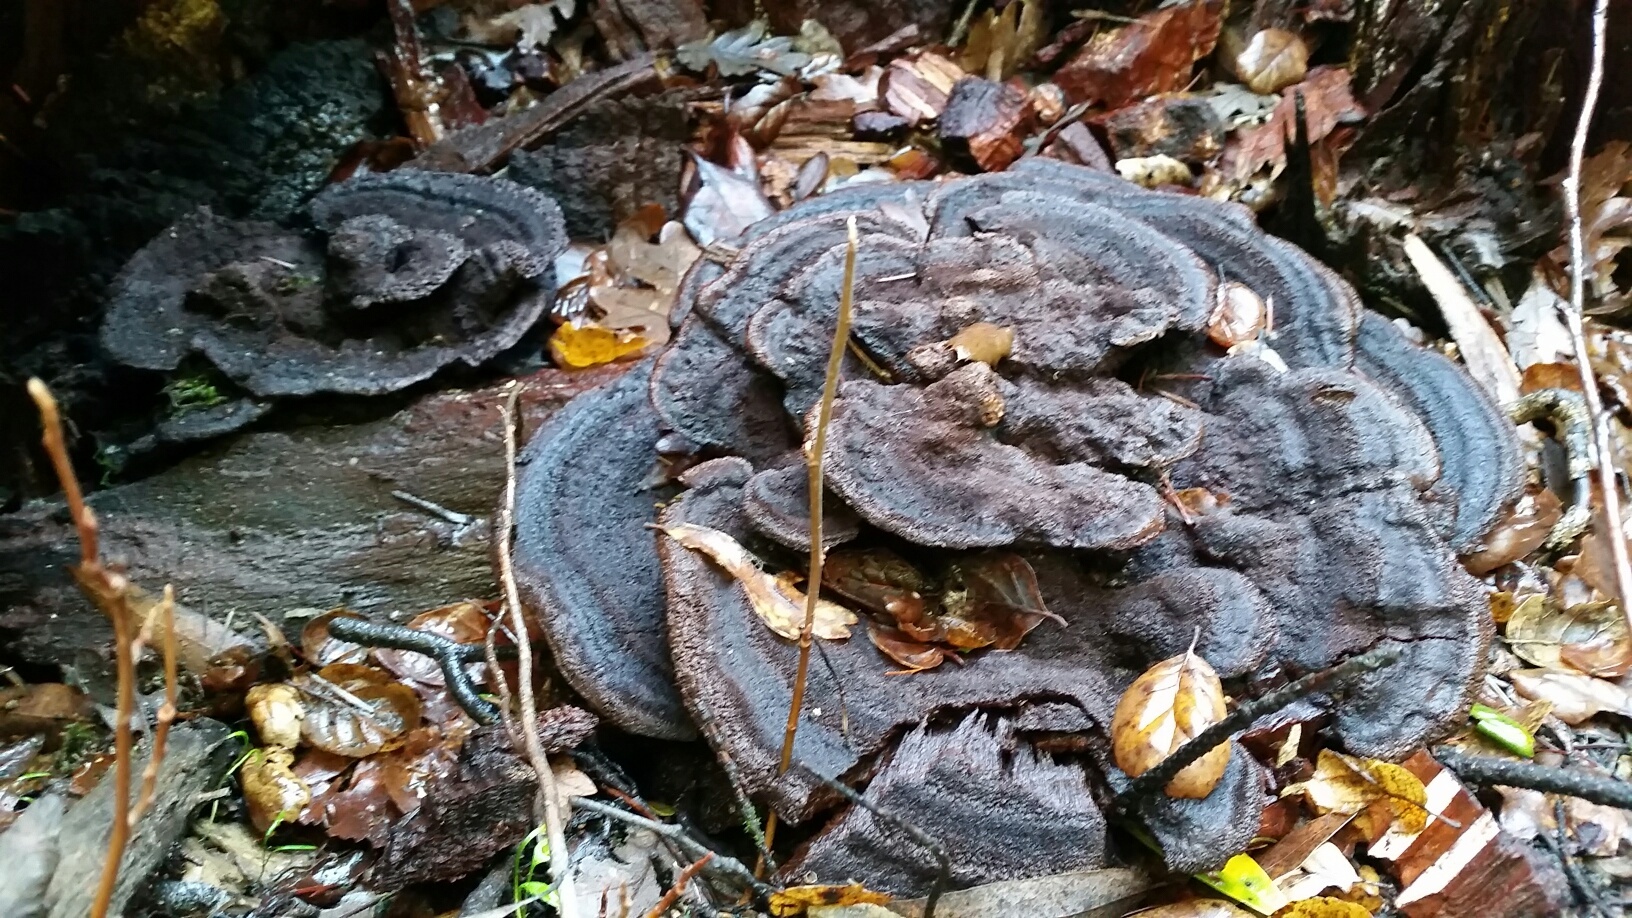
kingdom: Fungi
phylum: Basidiomycota
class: Agaricomycetes
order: Polyporales
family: Laetiporaceae
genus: Phaeolus
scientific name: Phaeolus schweinitzii
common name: Dyer's mazegill
